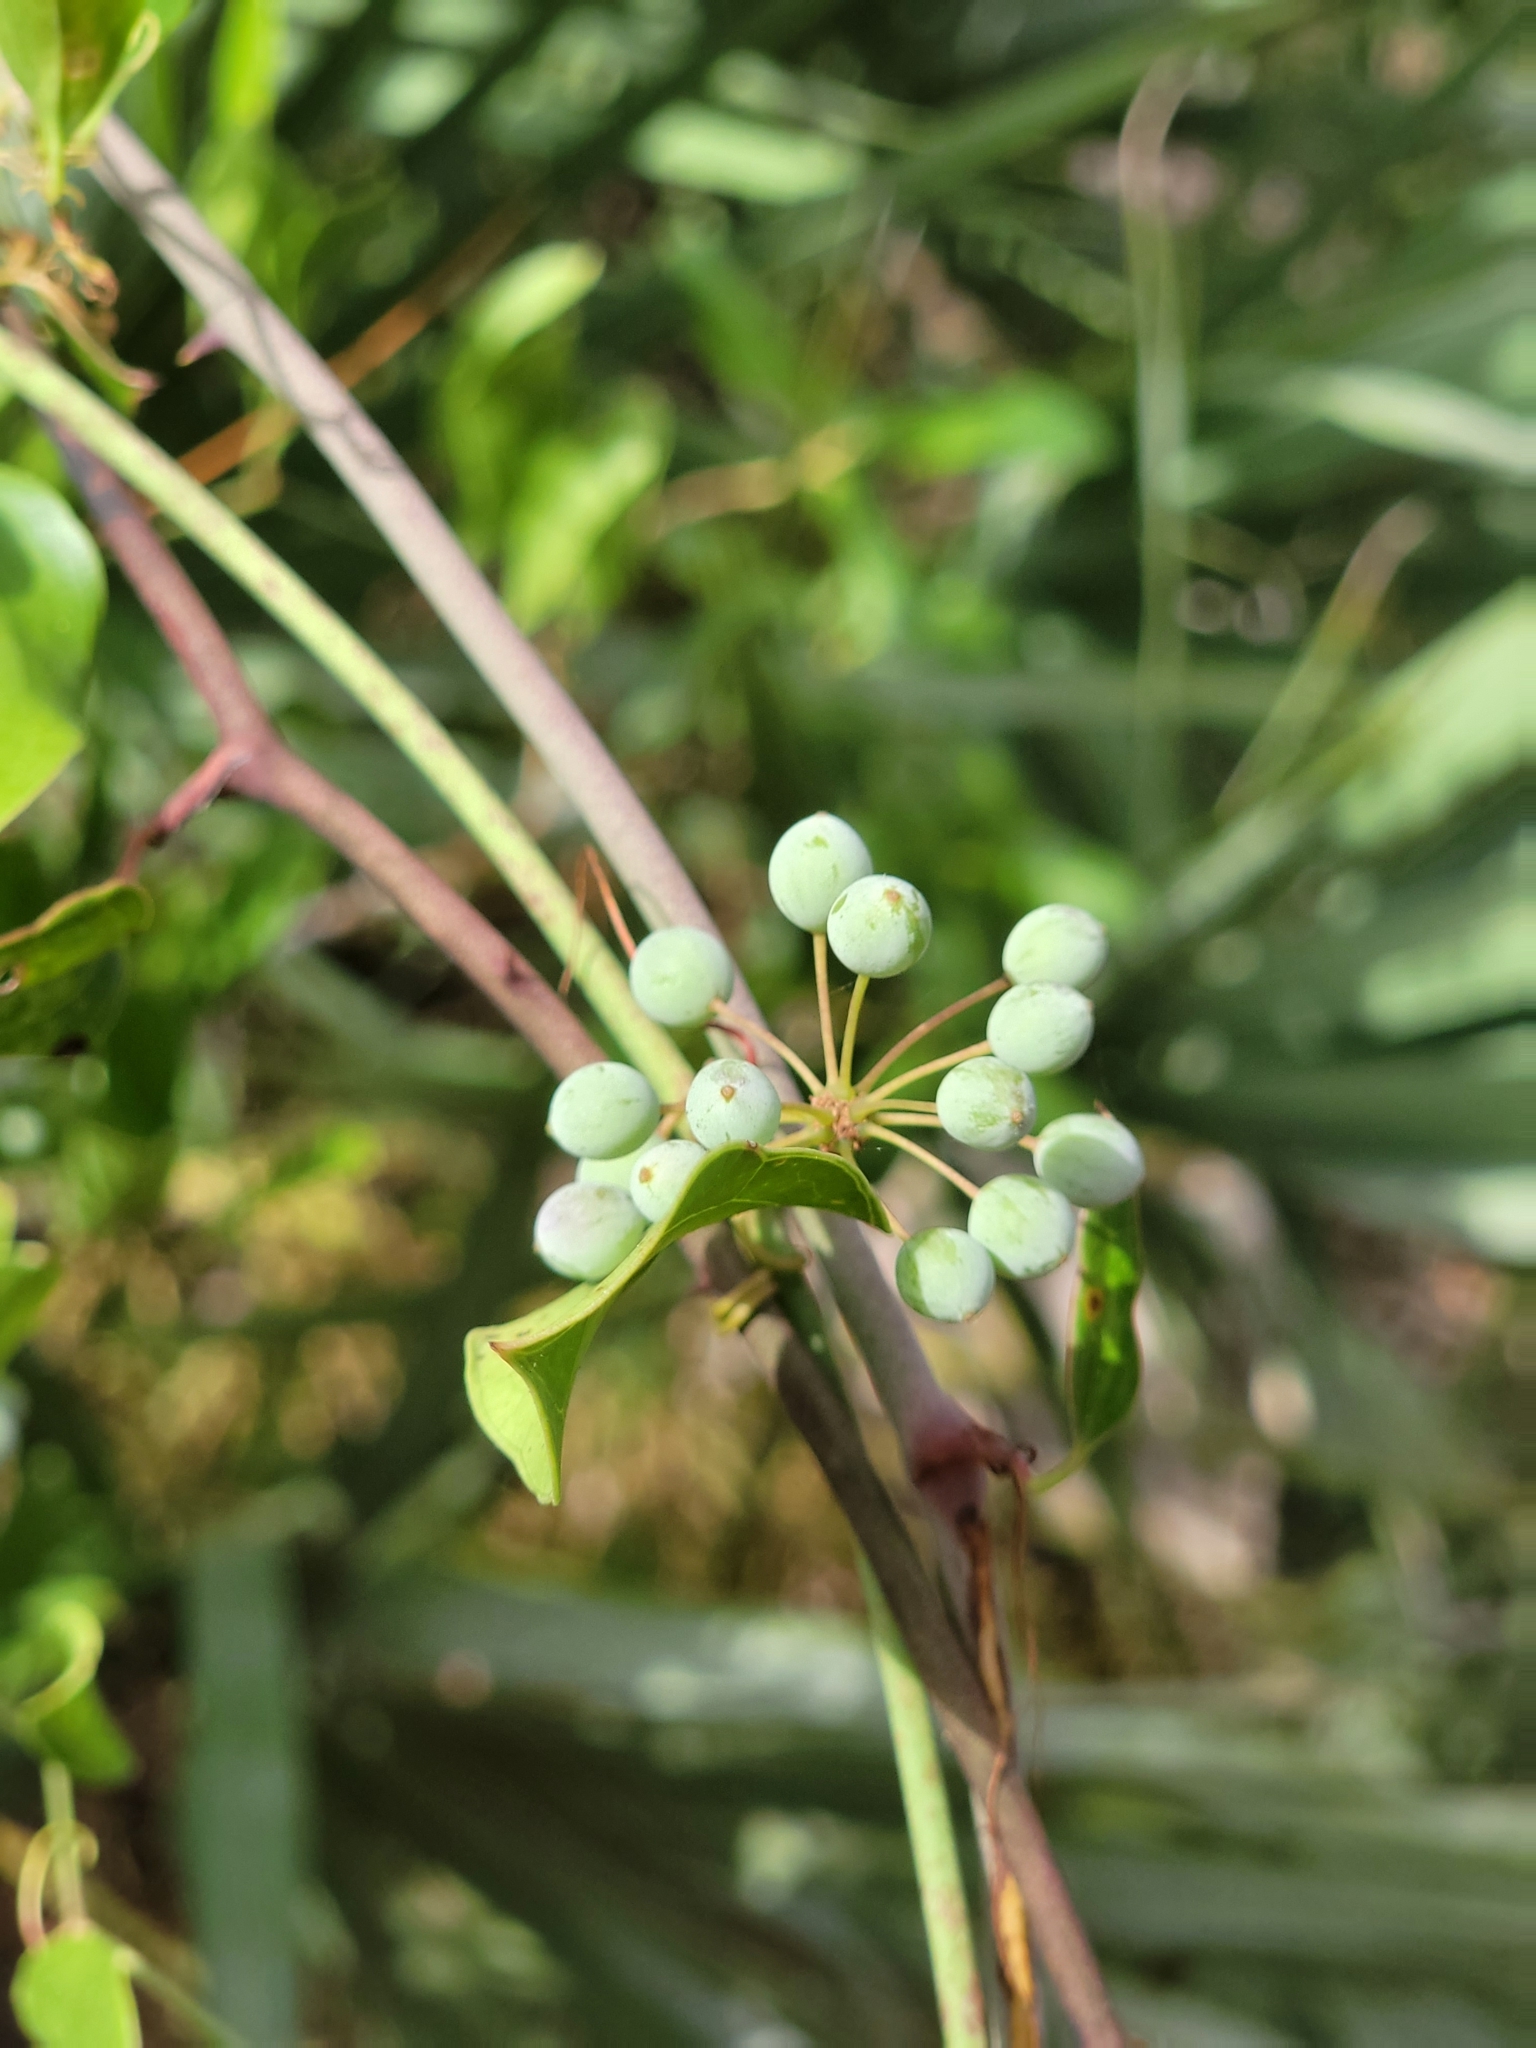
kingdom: Plantae
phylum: Tracheophyta
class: Liliopsida
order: Liliales
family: Smilacaceae
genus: Smilax
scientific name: Smilax
